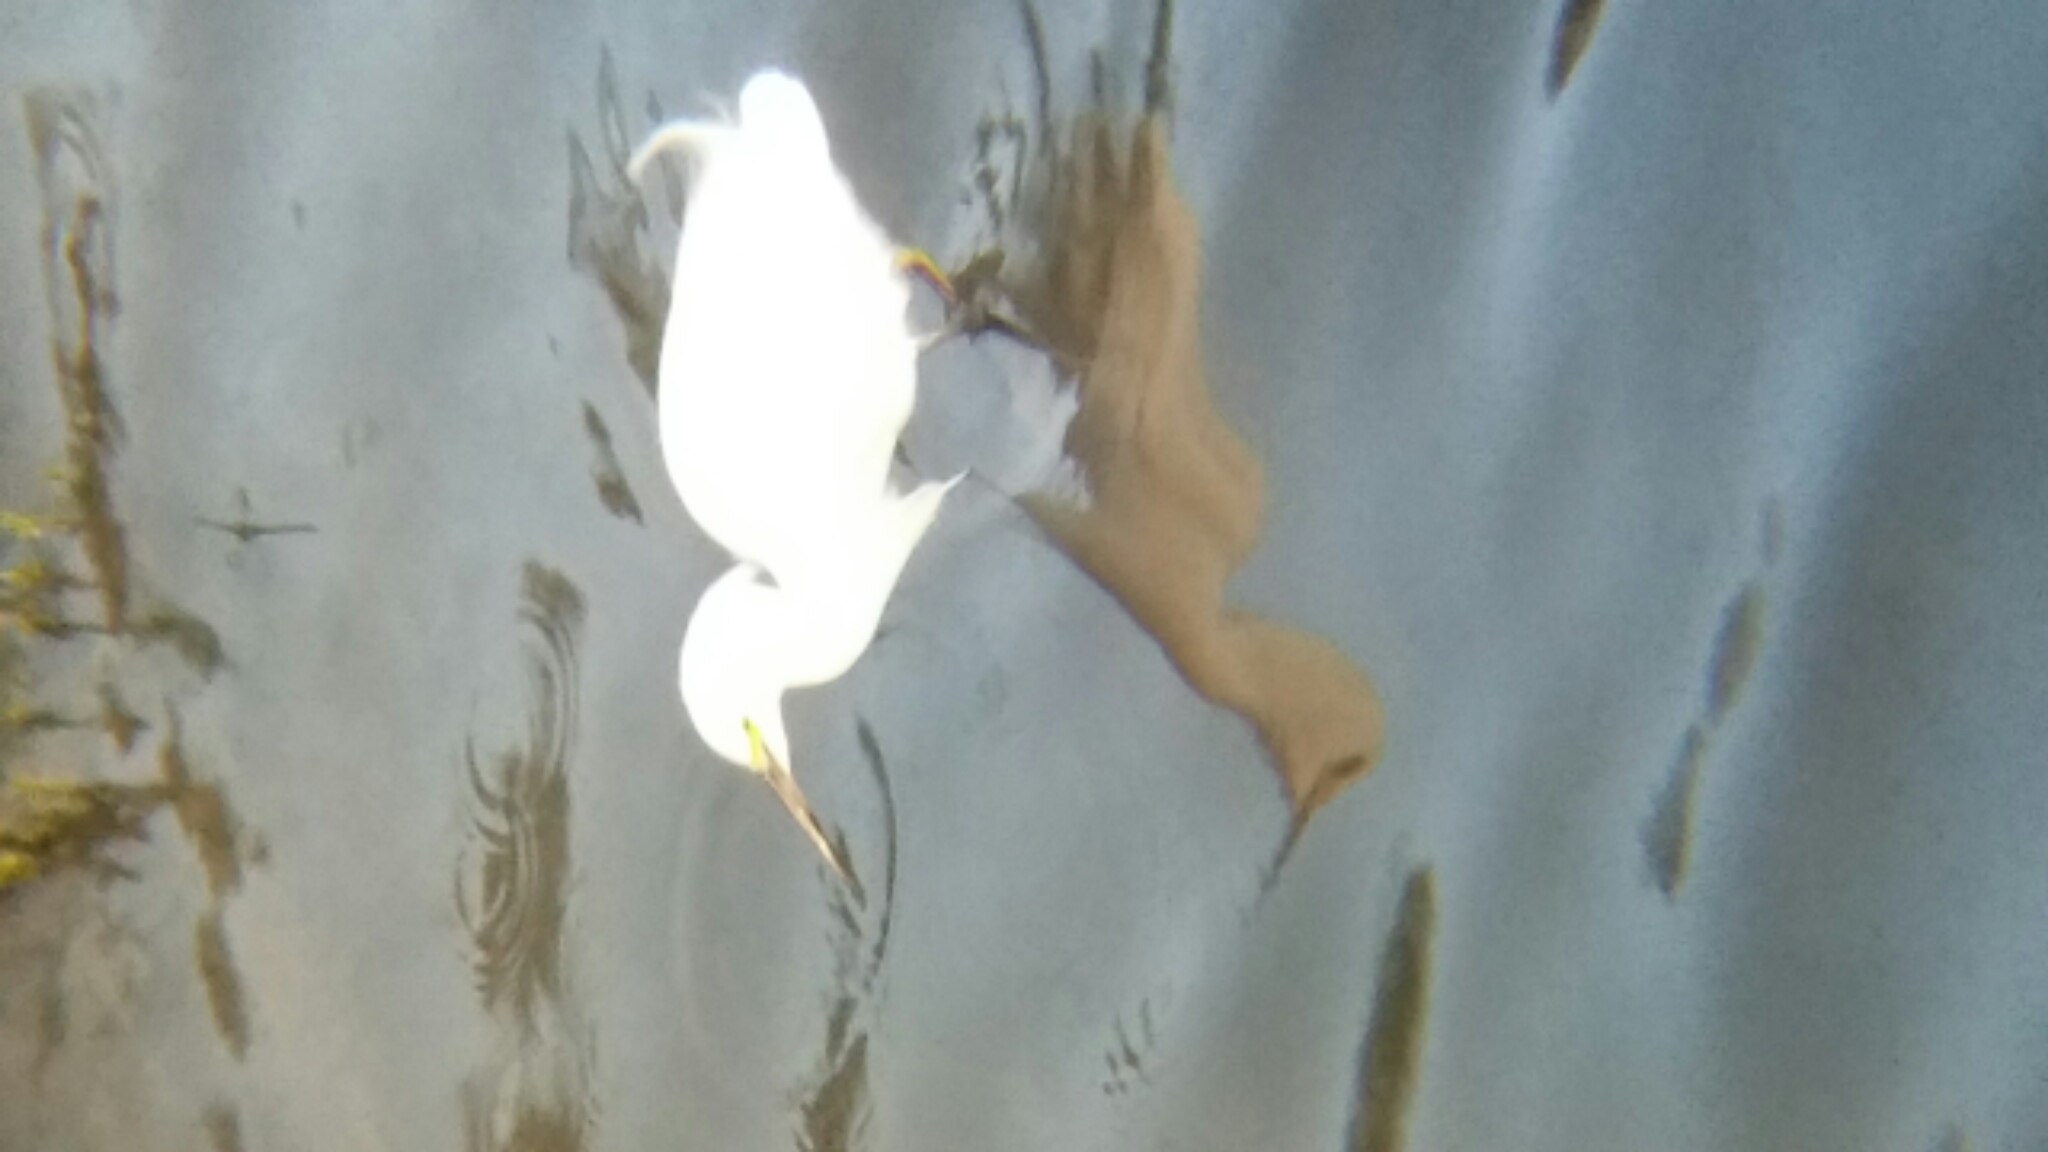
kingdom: Animalia
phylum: Chordata
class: Aves
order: Pelecaniformes
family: Ardeidae
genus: Egretta
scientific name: Egretta thula
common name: Snowy egret
